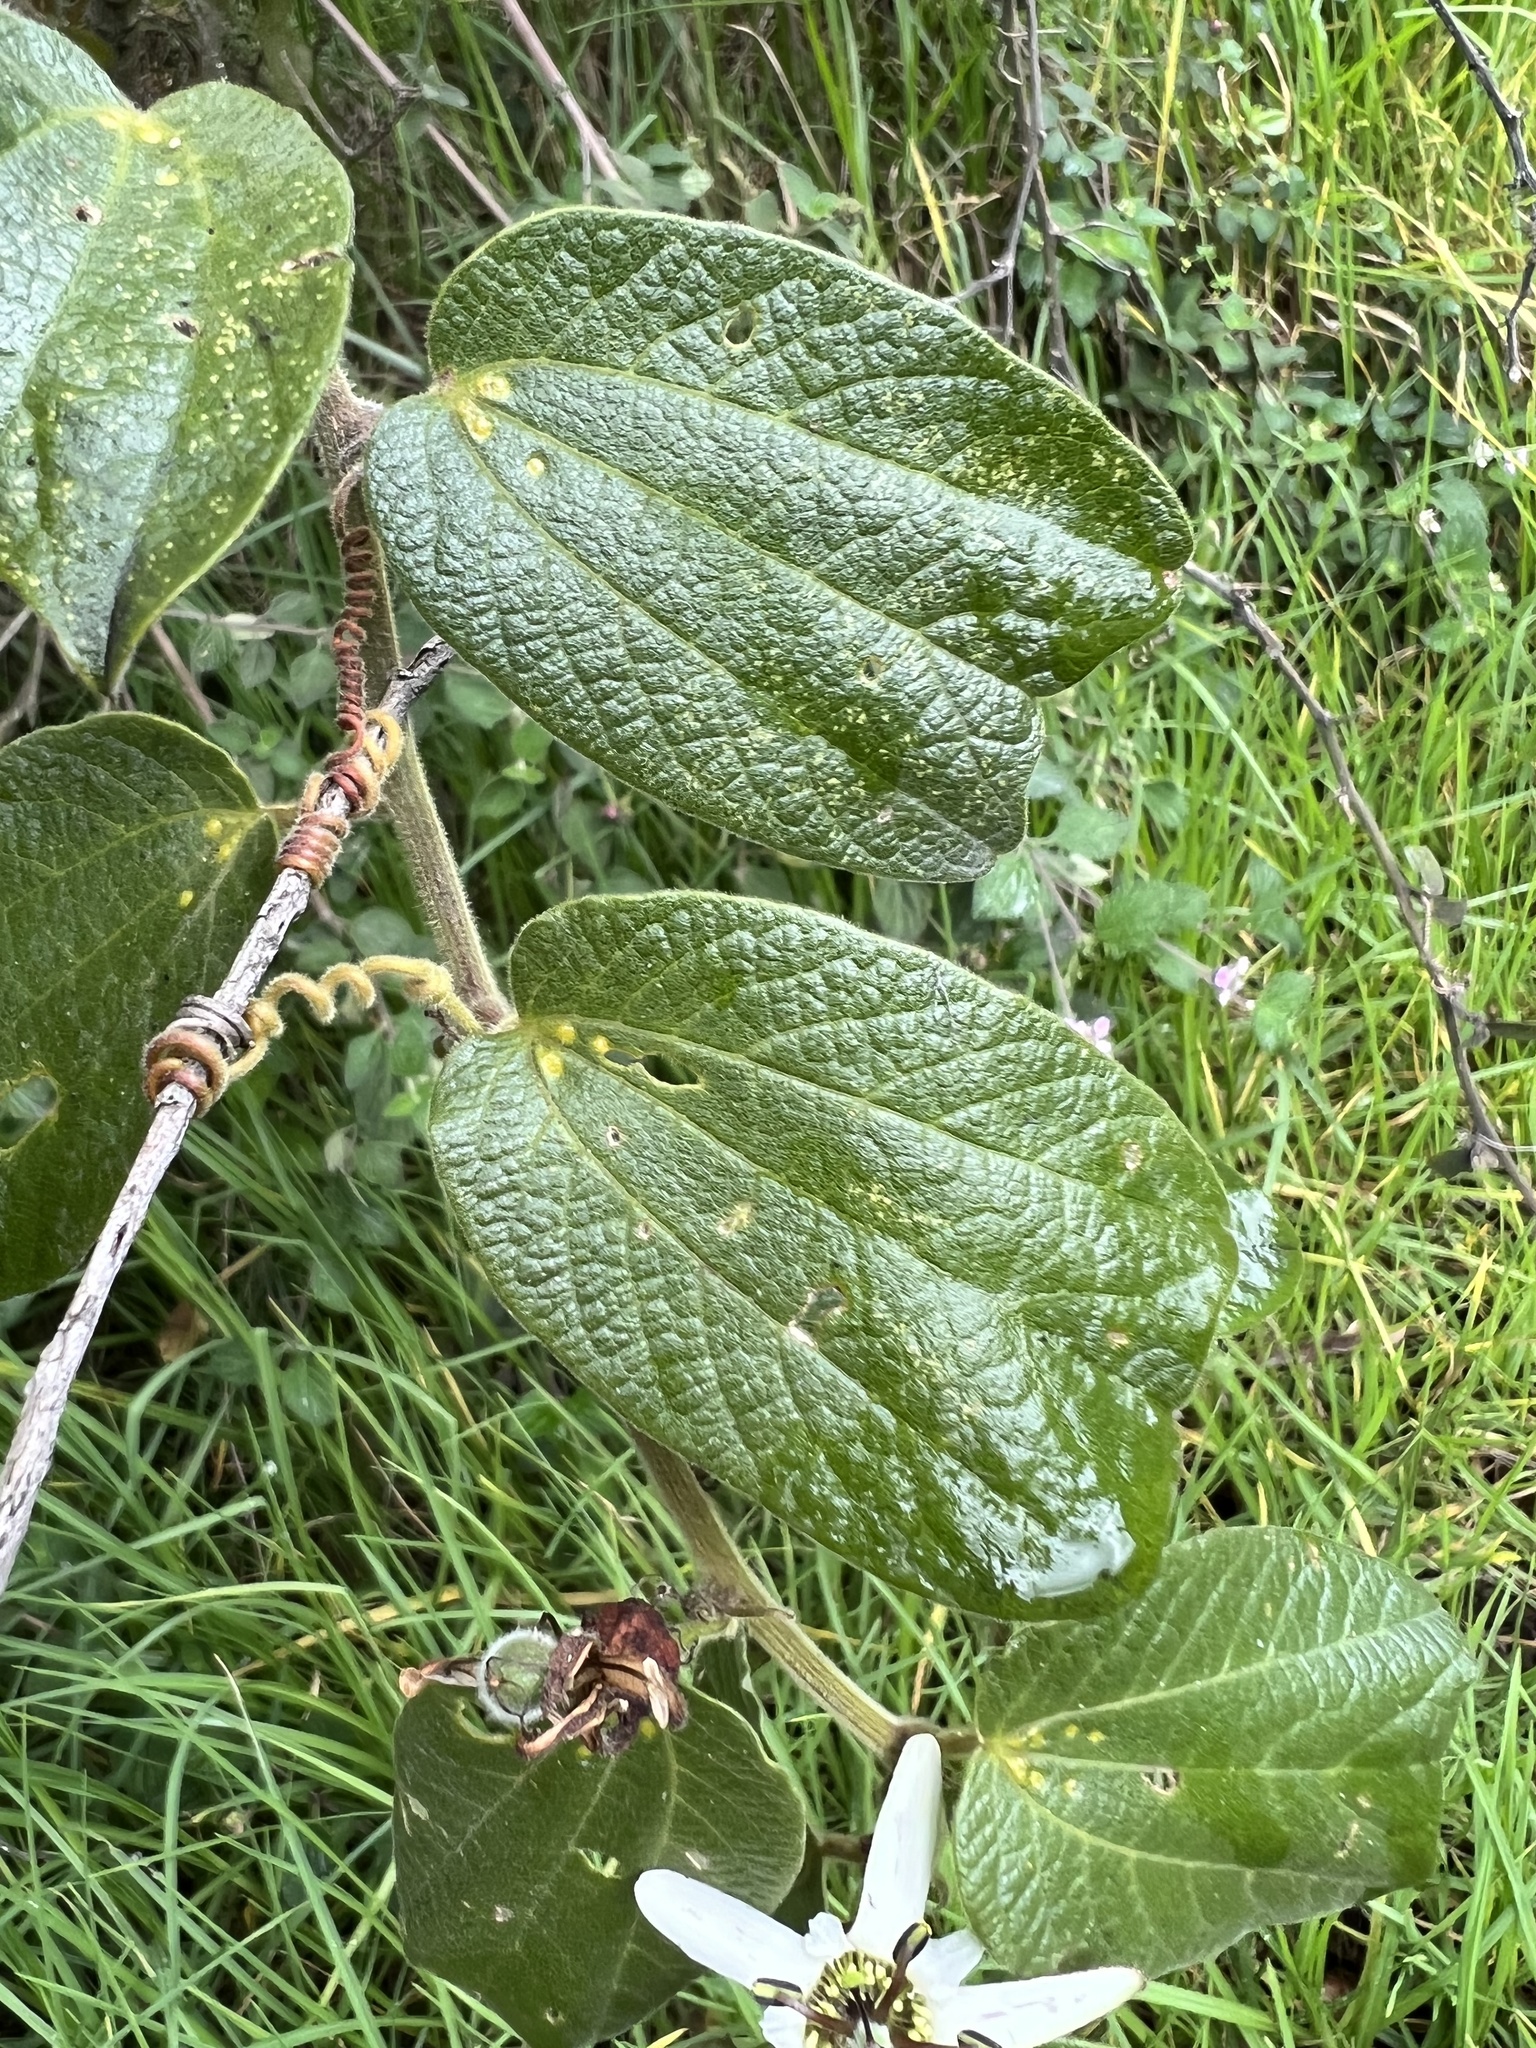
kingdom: Plantae
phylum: Tracheophyta
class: Magnoliopsida
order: Malpighiales
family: Passifloraceae
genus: Passiflora
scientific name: Passiflora bogotensis
